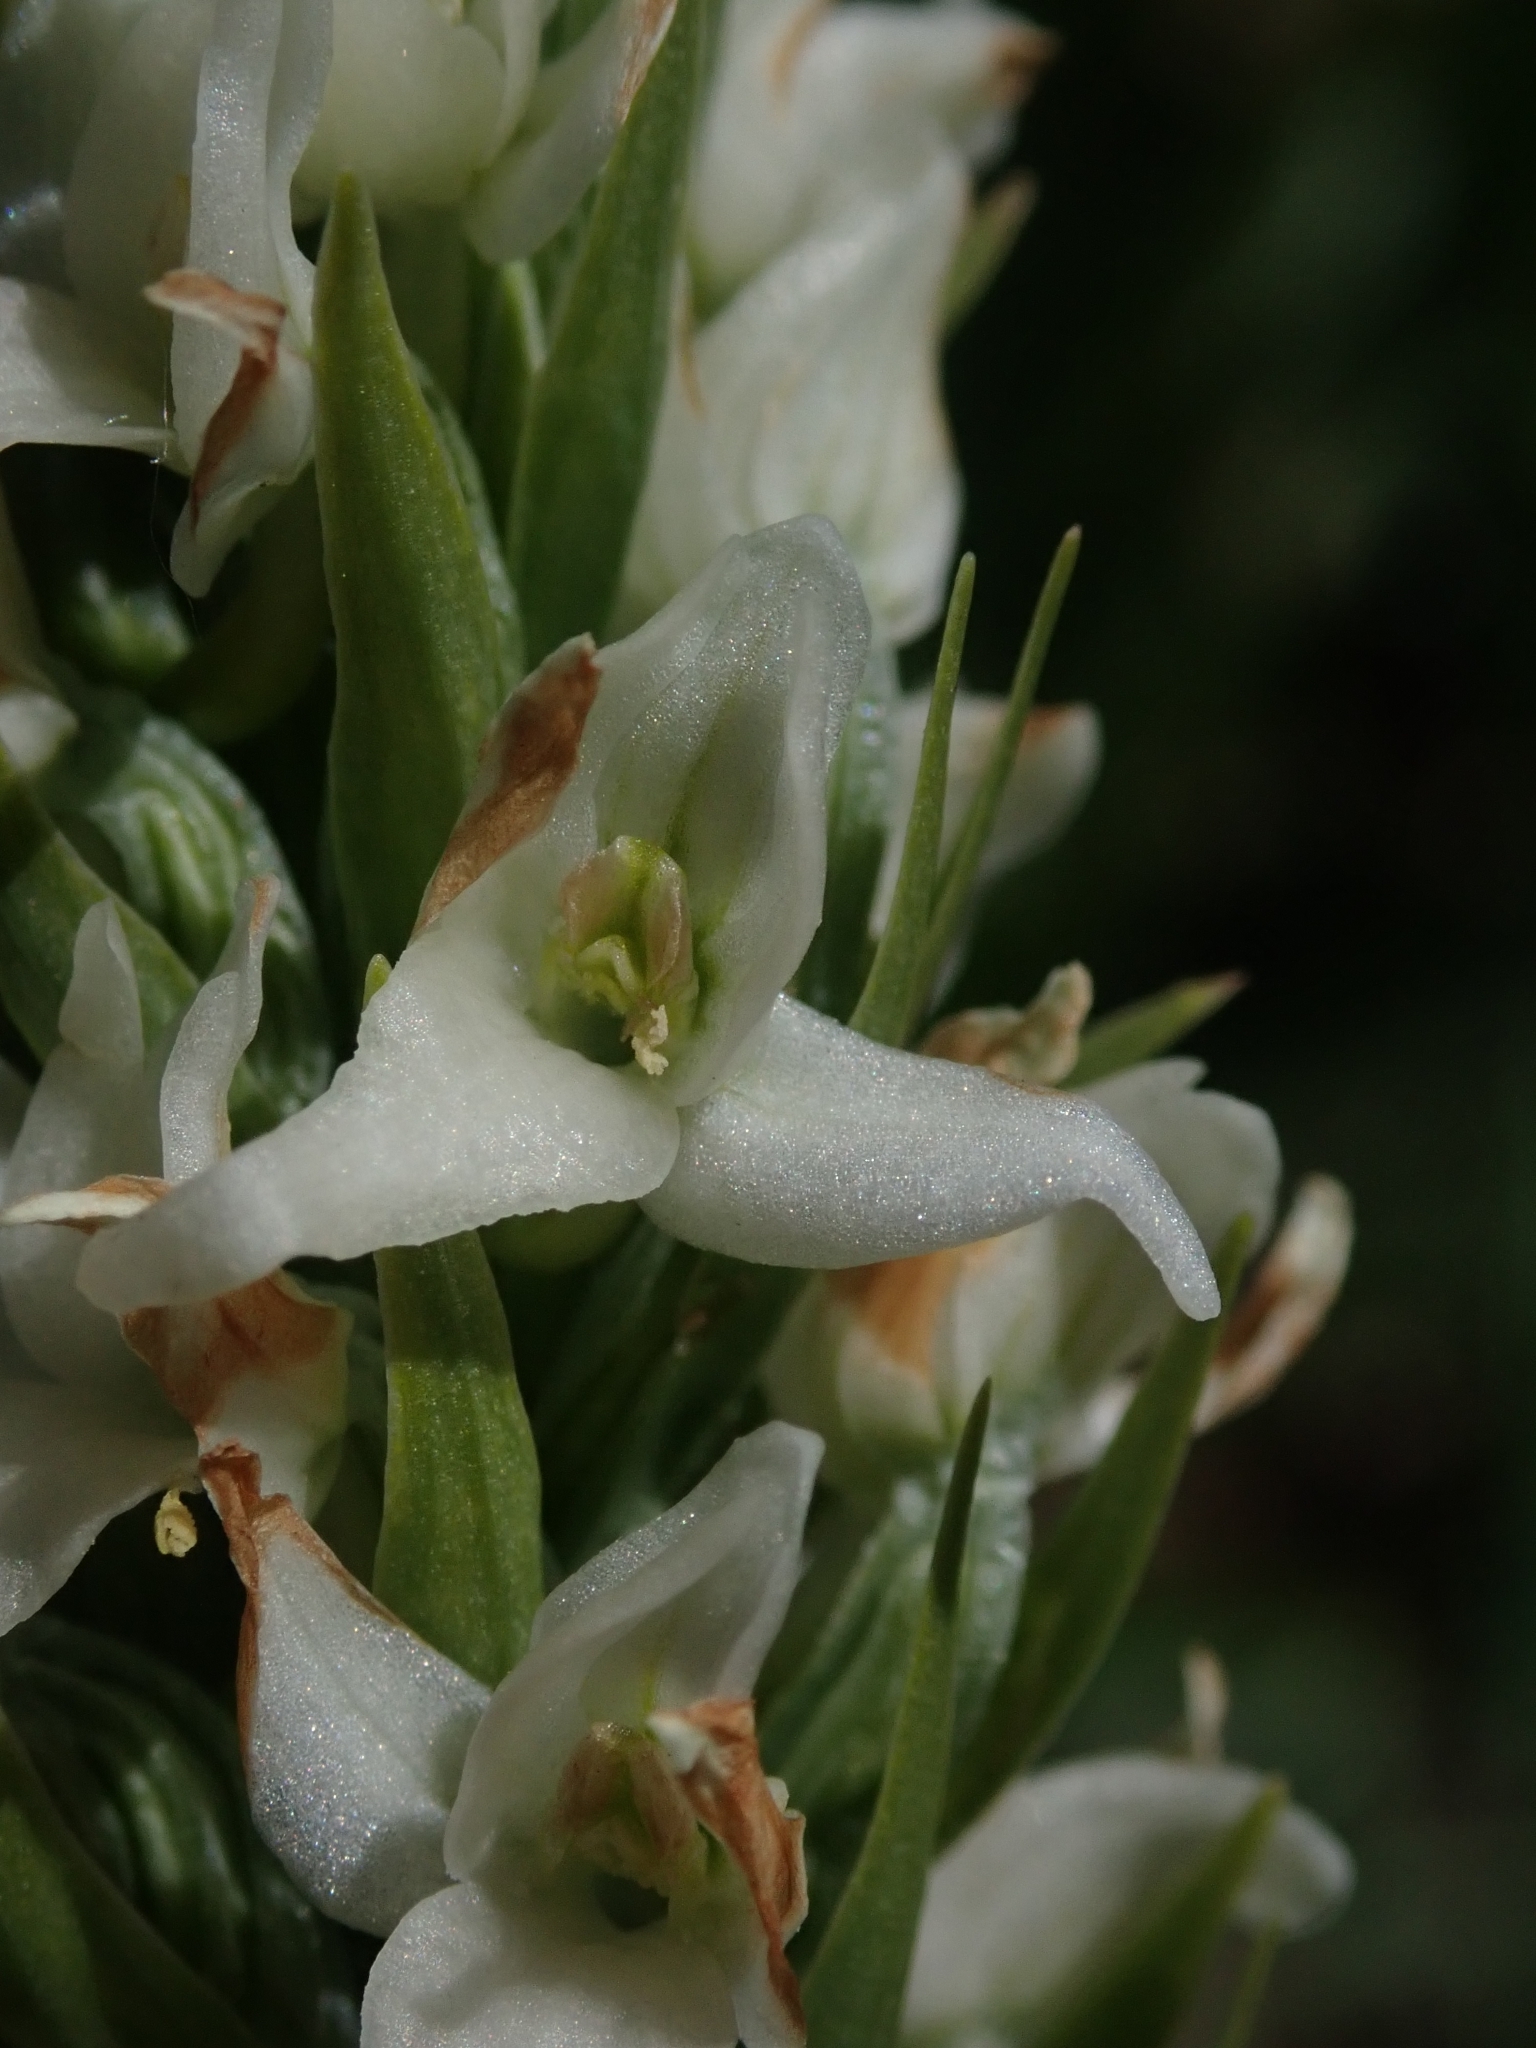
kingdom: Plantae
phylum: Tracheophyta
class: Liliopsida
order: Asparagales
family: Orchidaceae
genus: Platanthera
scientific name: Platanthera dilatata
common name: Bog candles
